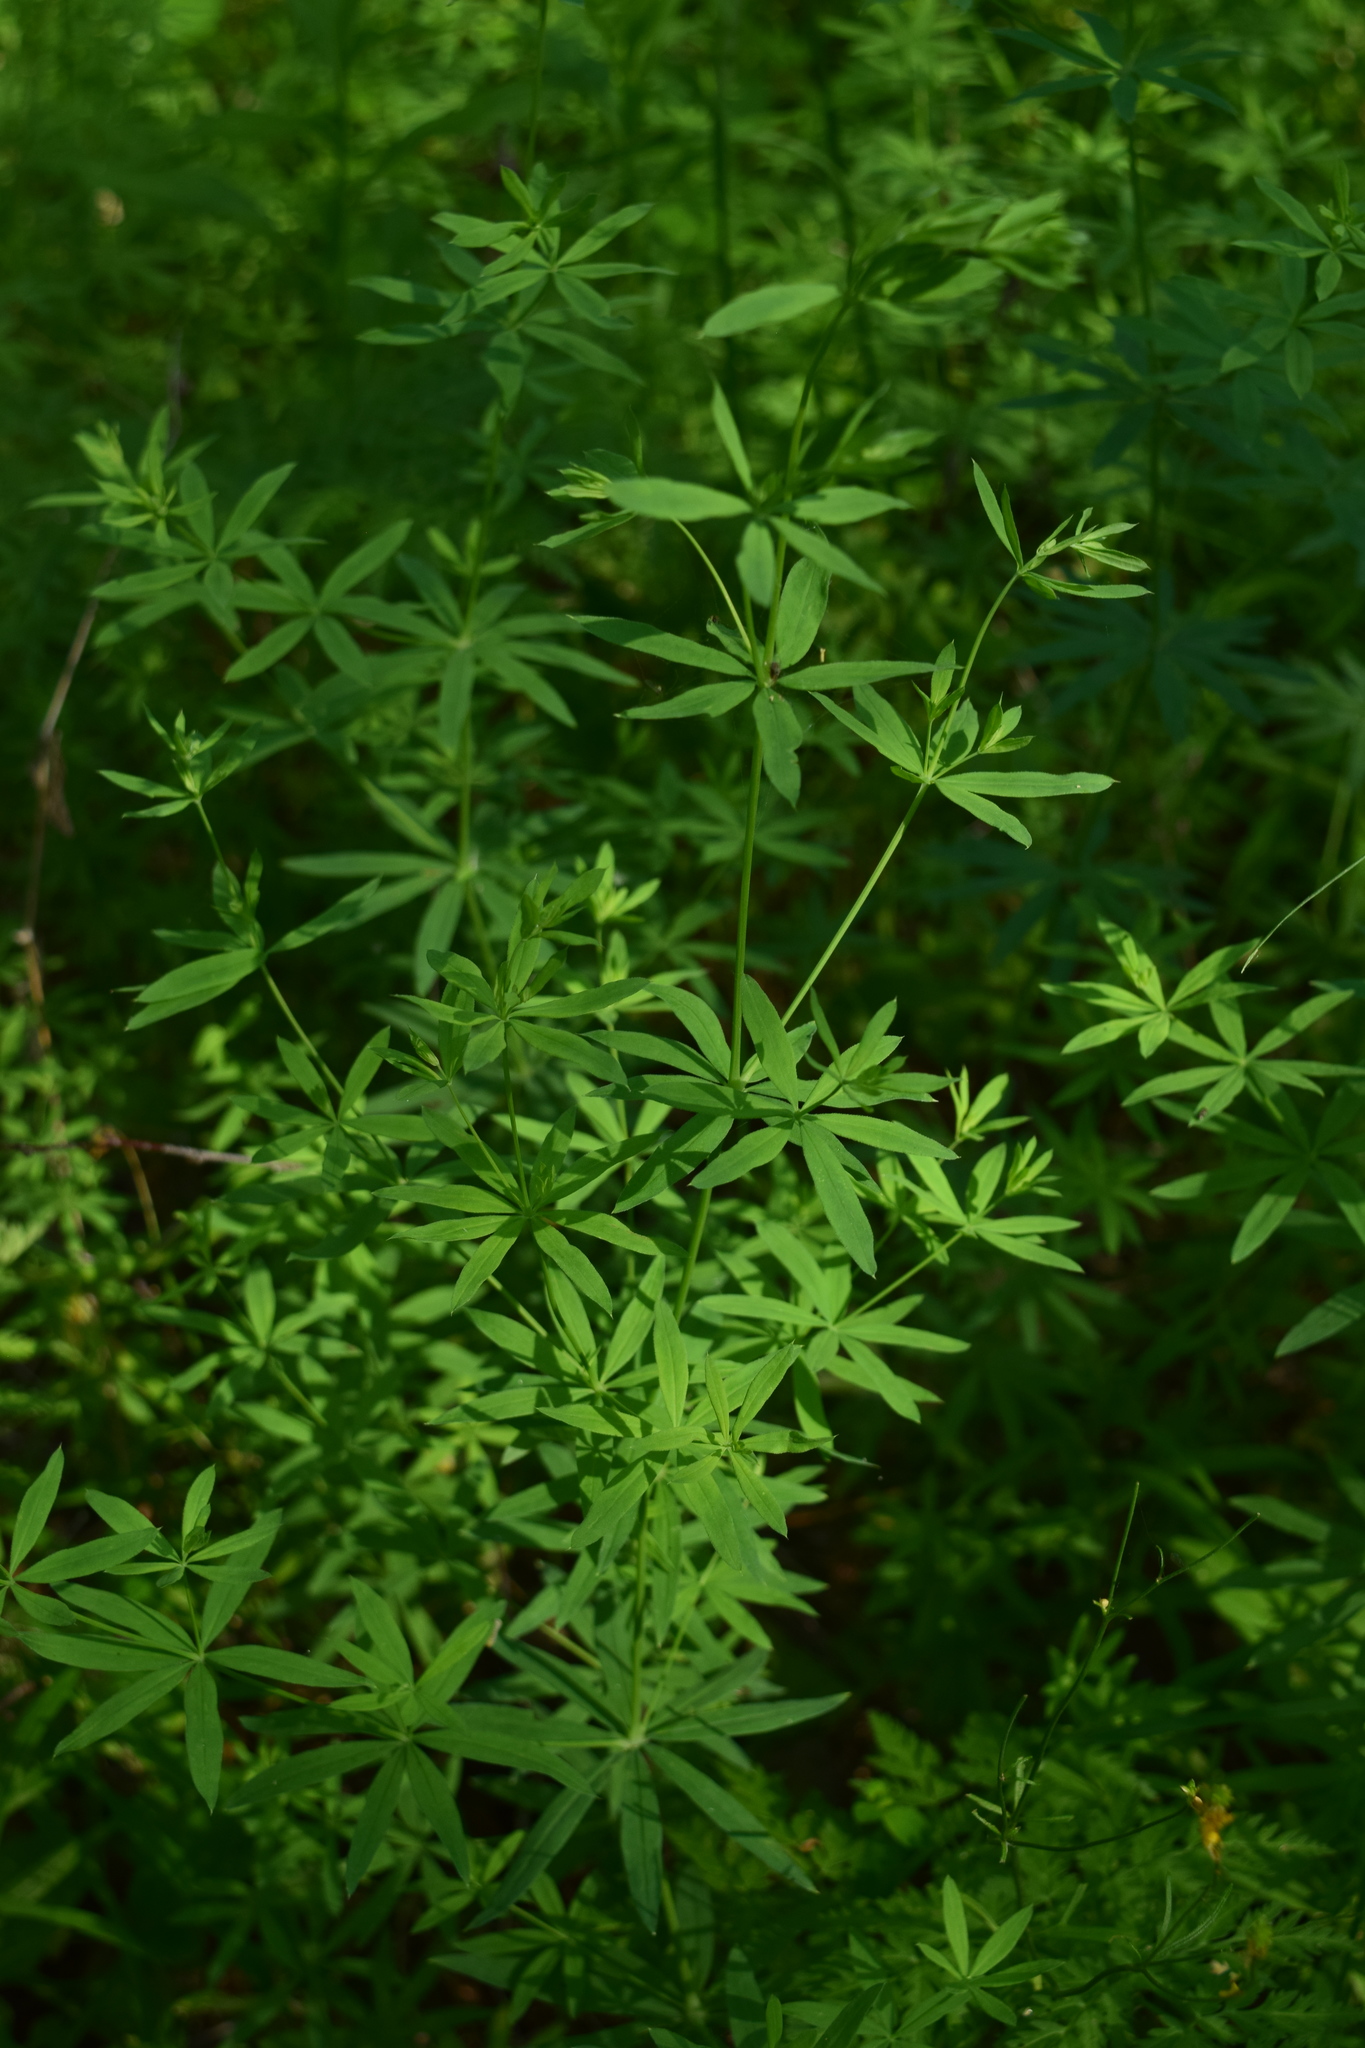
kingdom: Plantae
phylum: Tracheophyta
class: Magnoliopsida
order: Gentianales
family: Rubiaceae
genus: Galium
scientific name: Galium intermedium
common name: Bedstraw
